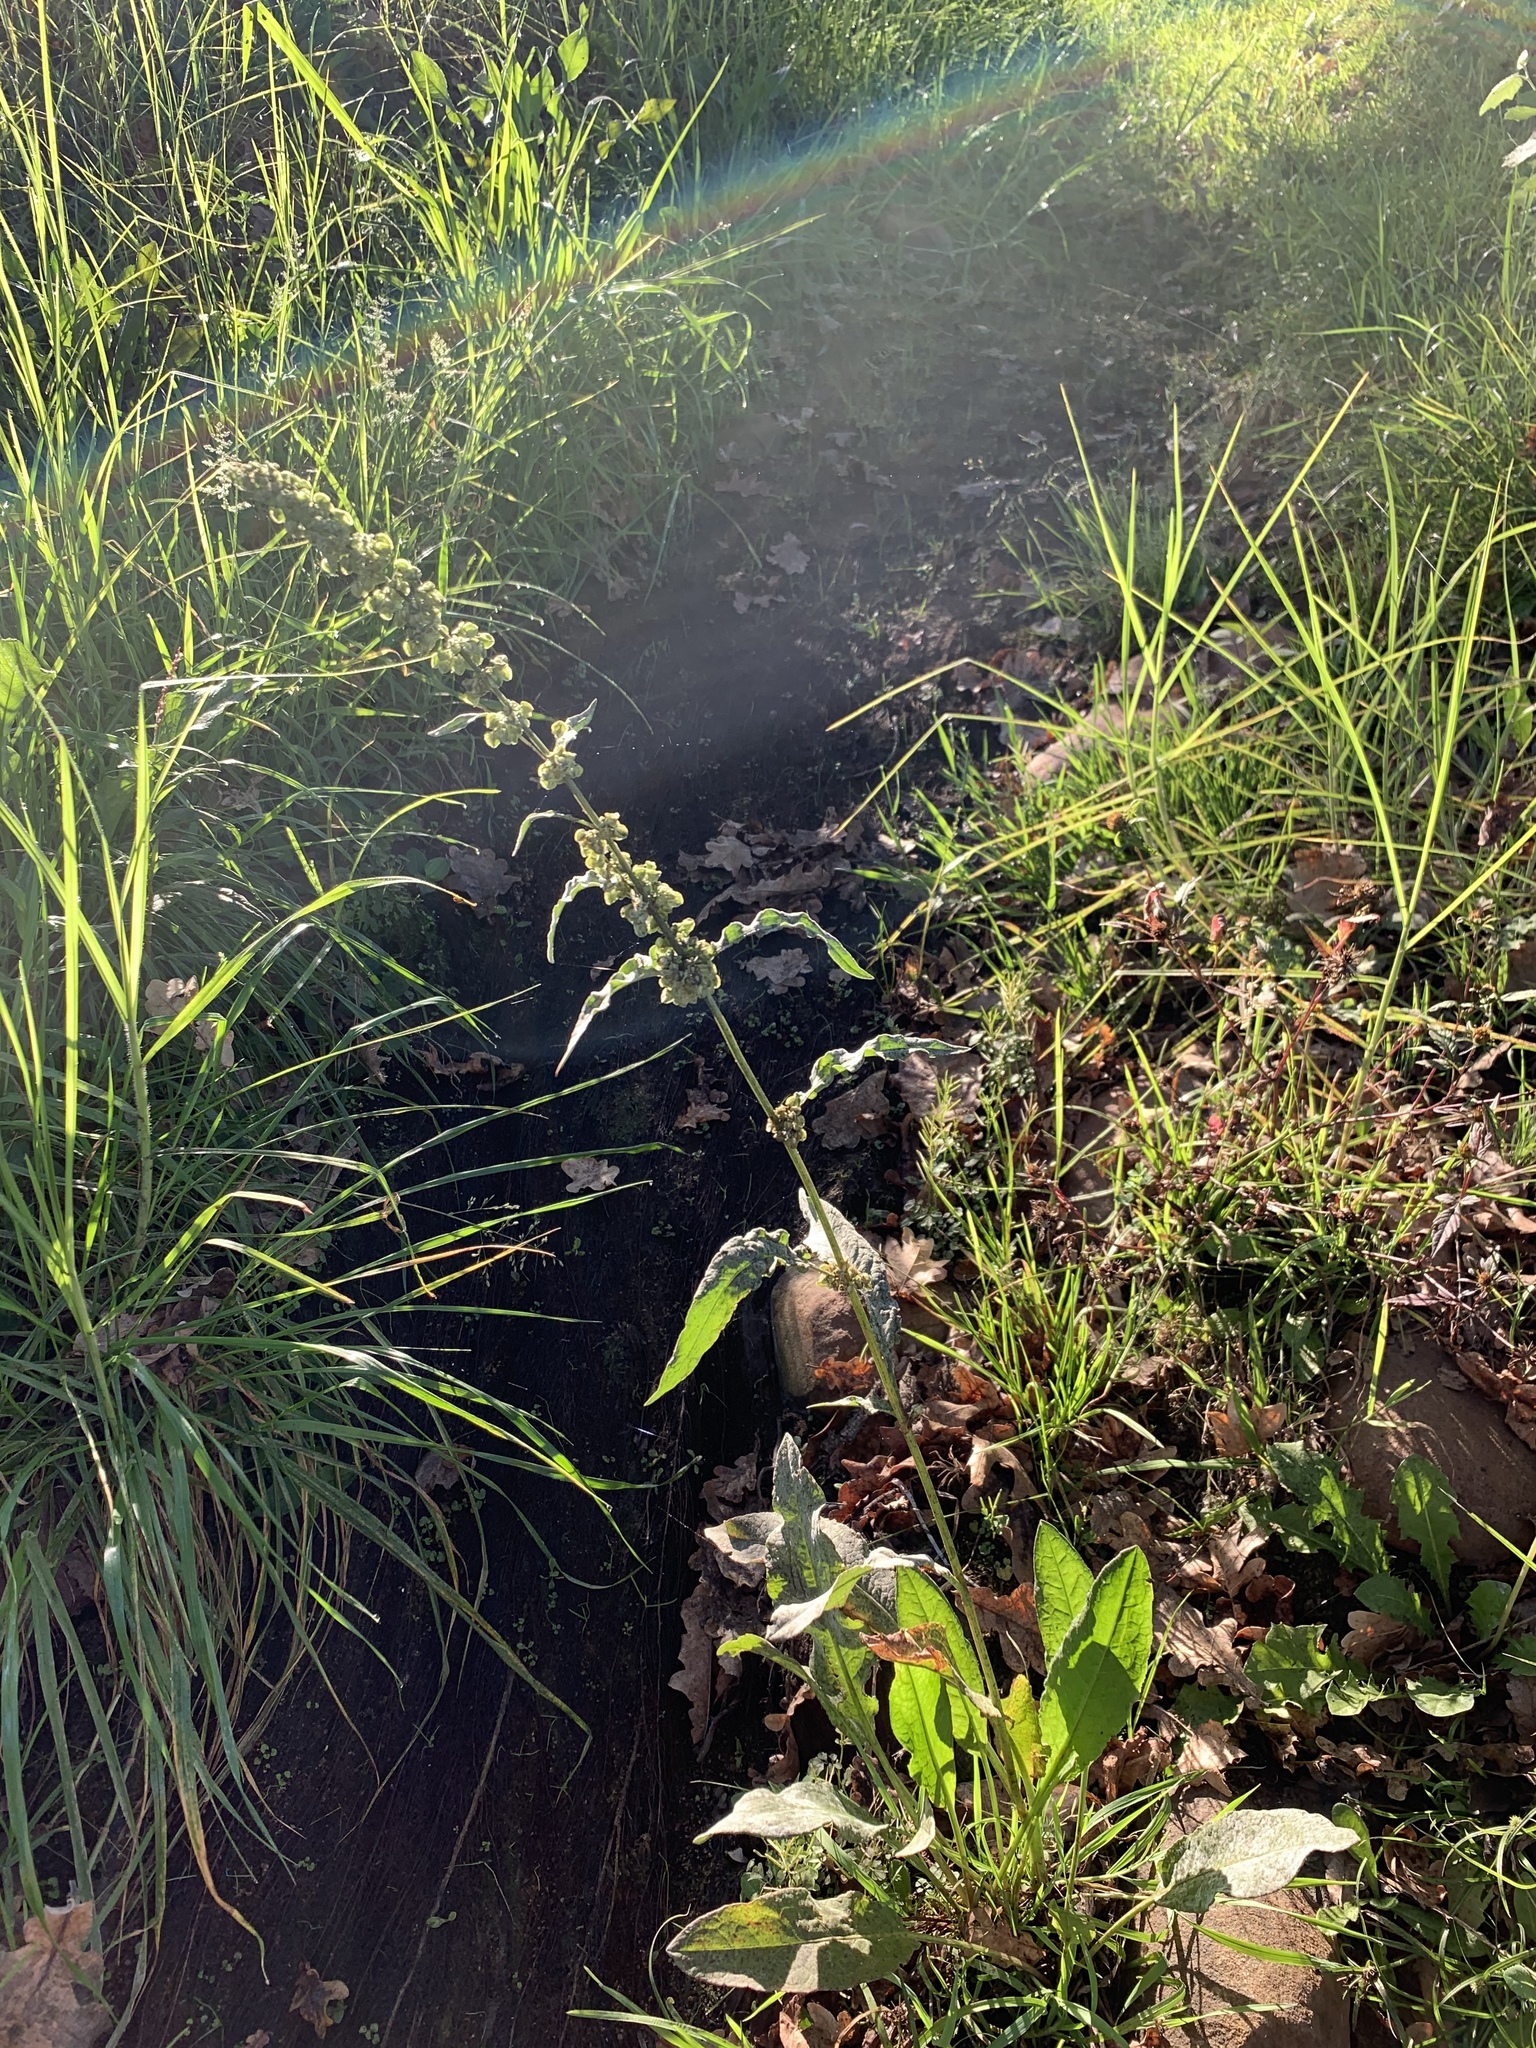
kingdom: Plantae
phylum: Tracheophyta
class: Magnoliopsida
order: Caryophyllales
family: Polygonaceae
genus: Rumex
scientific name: Rumex crispus
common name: Curled dock
